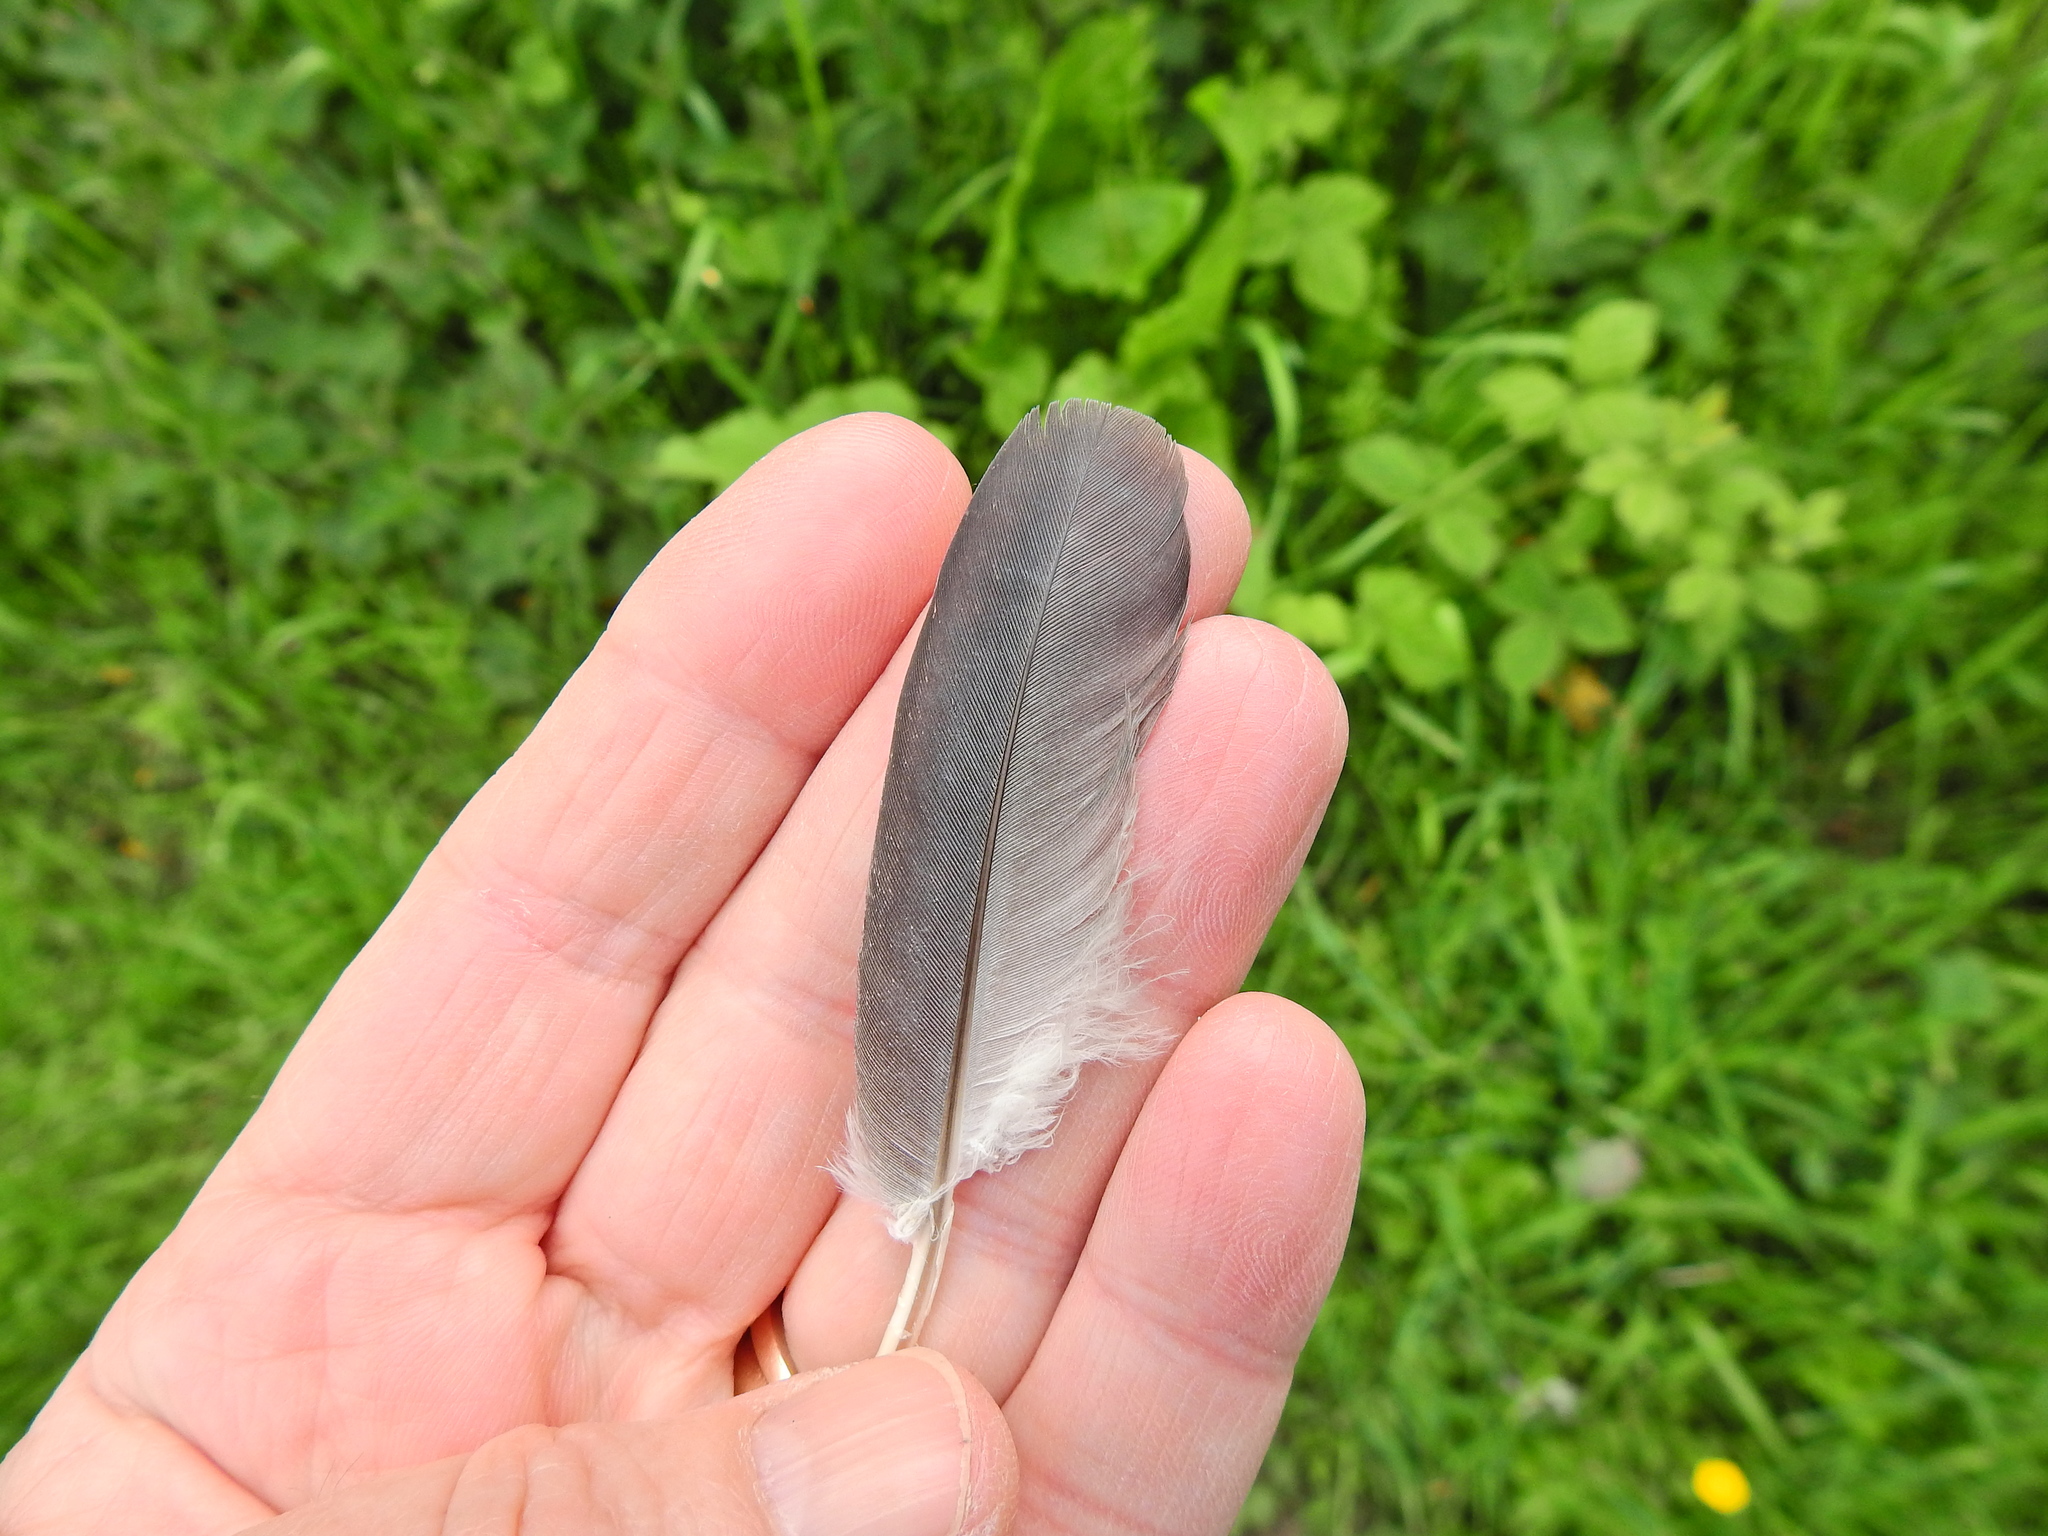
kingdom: Animalia
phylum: Chordata
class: Aves
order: Columbiformes
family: Columbidae
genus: Columba
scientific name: Columba palumbus
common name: Common wood pigeon
